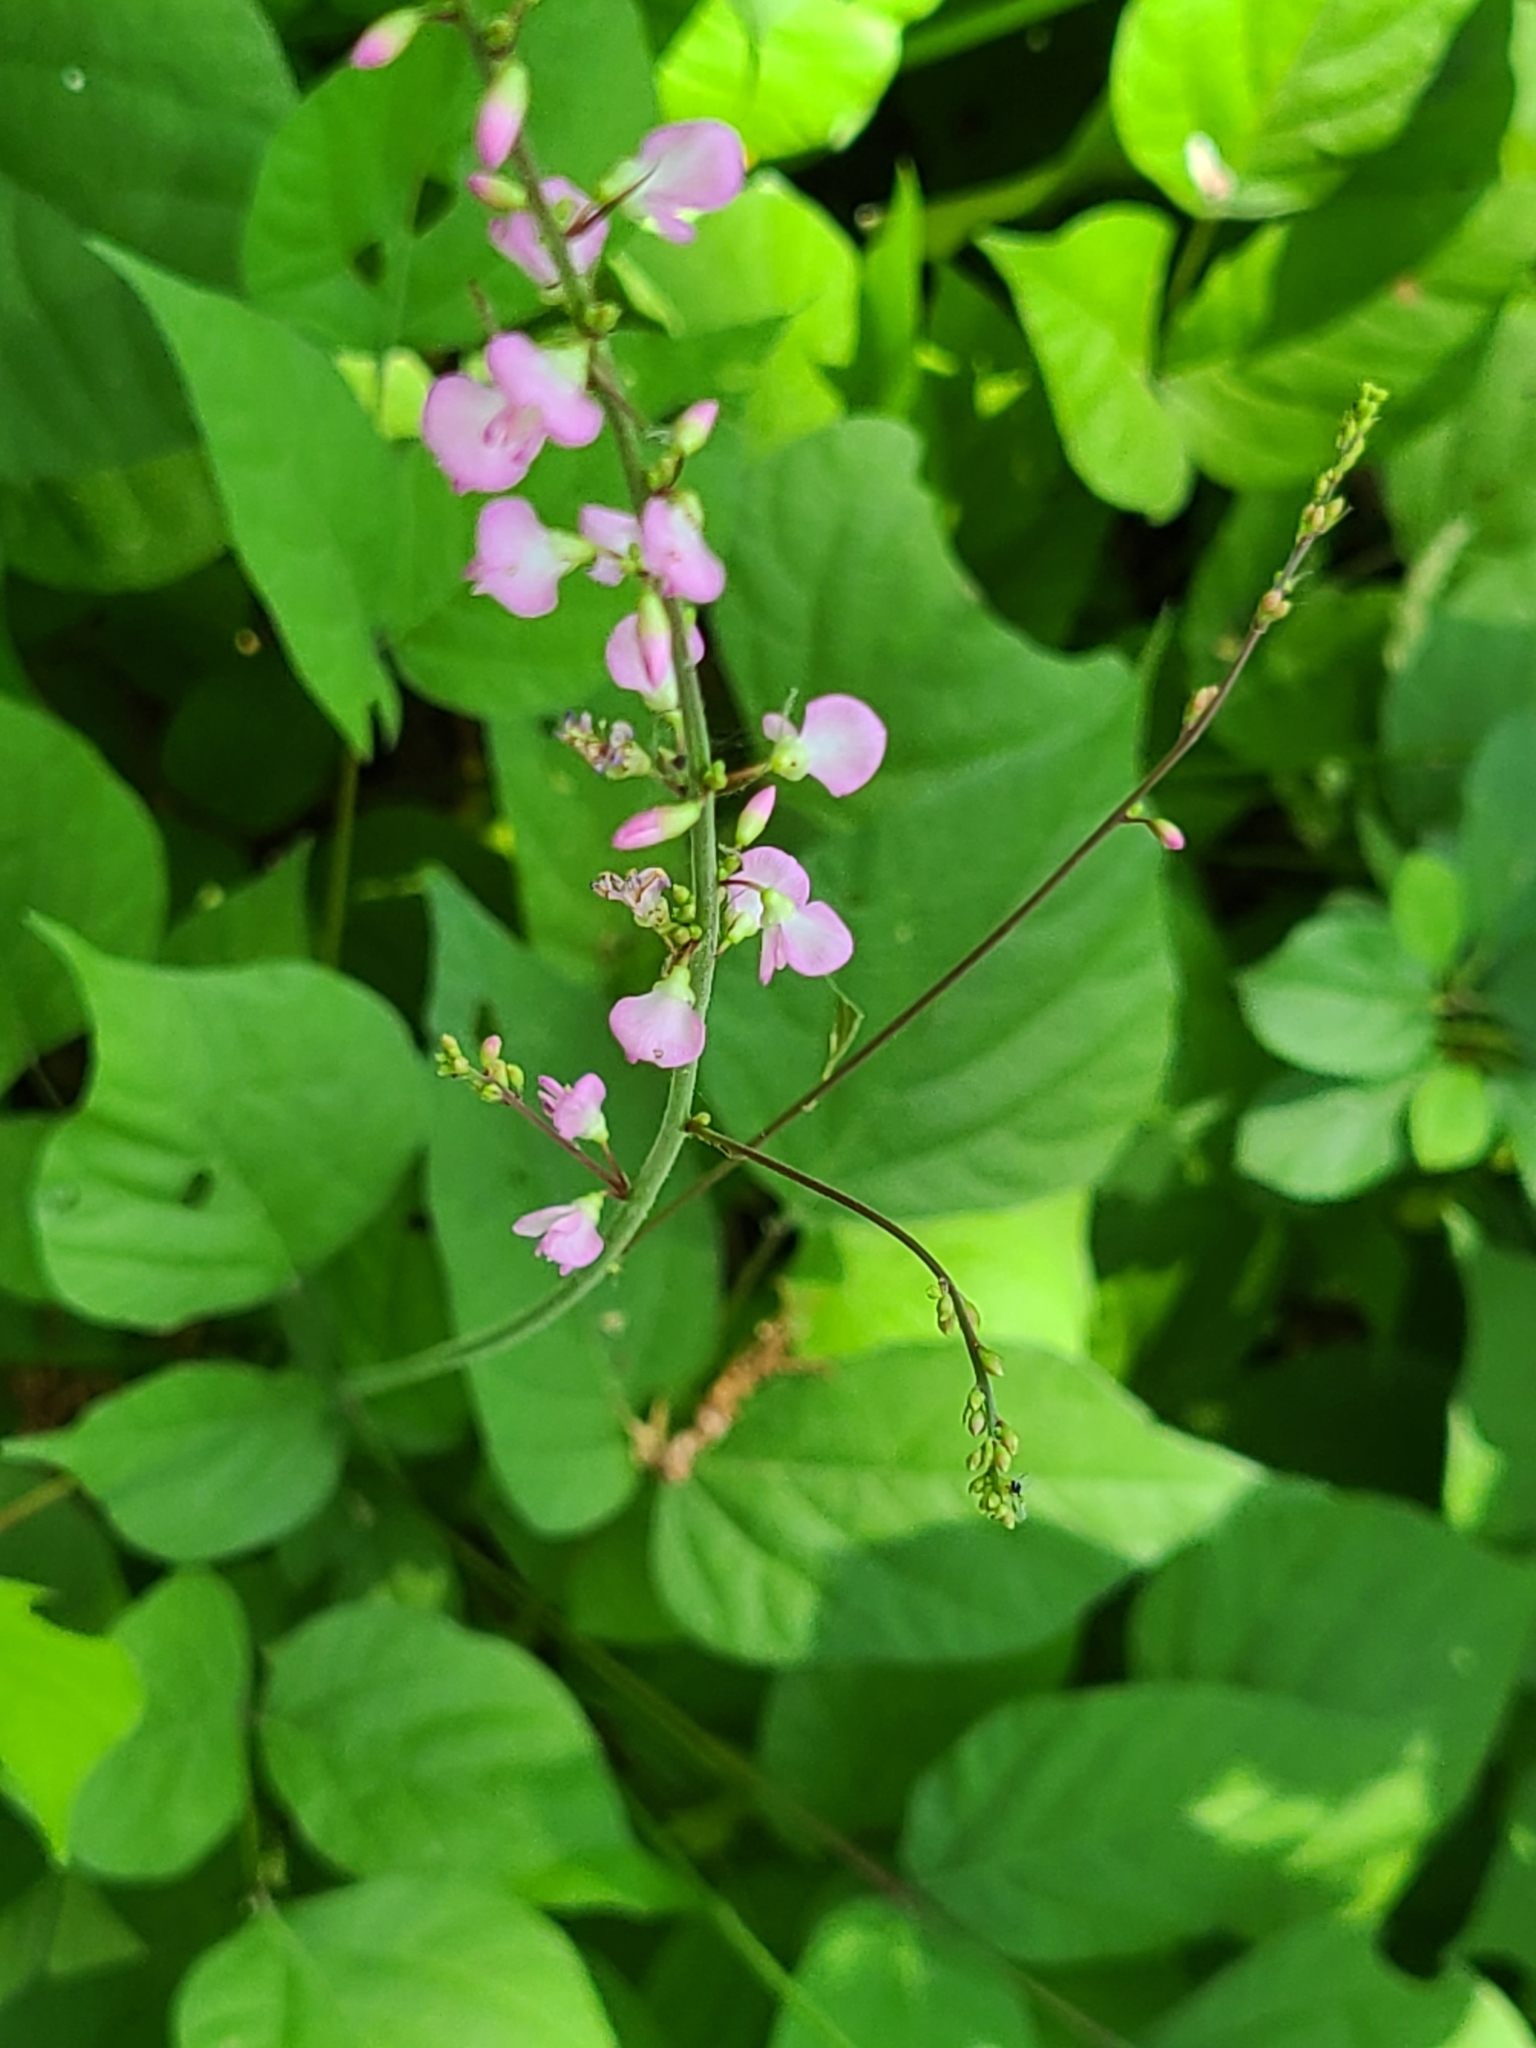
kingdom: Plantae
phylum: Tracheophyta
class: Magnoliopsida
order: Fabales
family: Fabaceae
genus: Hylodesmum
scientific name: Hylodesmum glutinosum
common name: Clustered-leaved tick-trefoil
